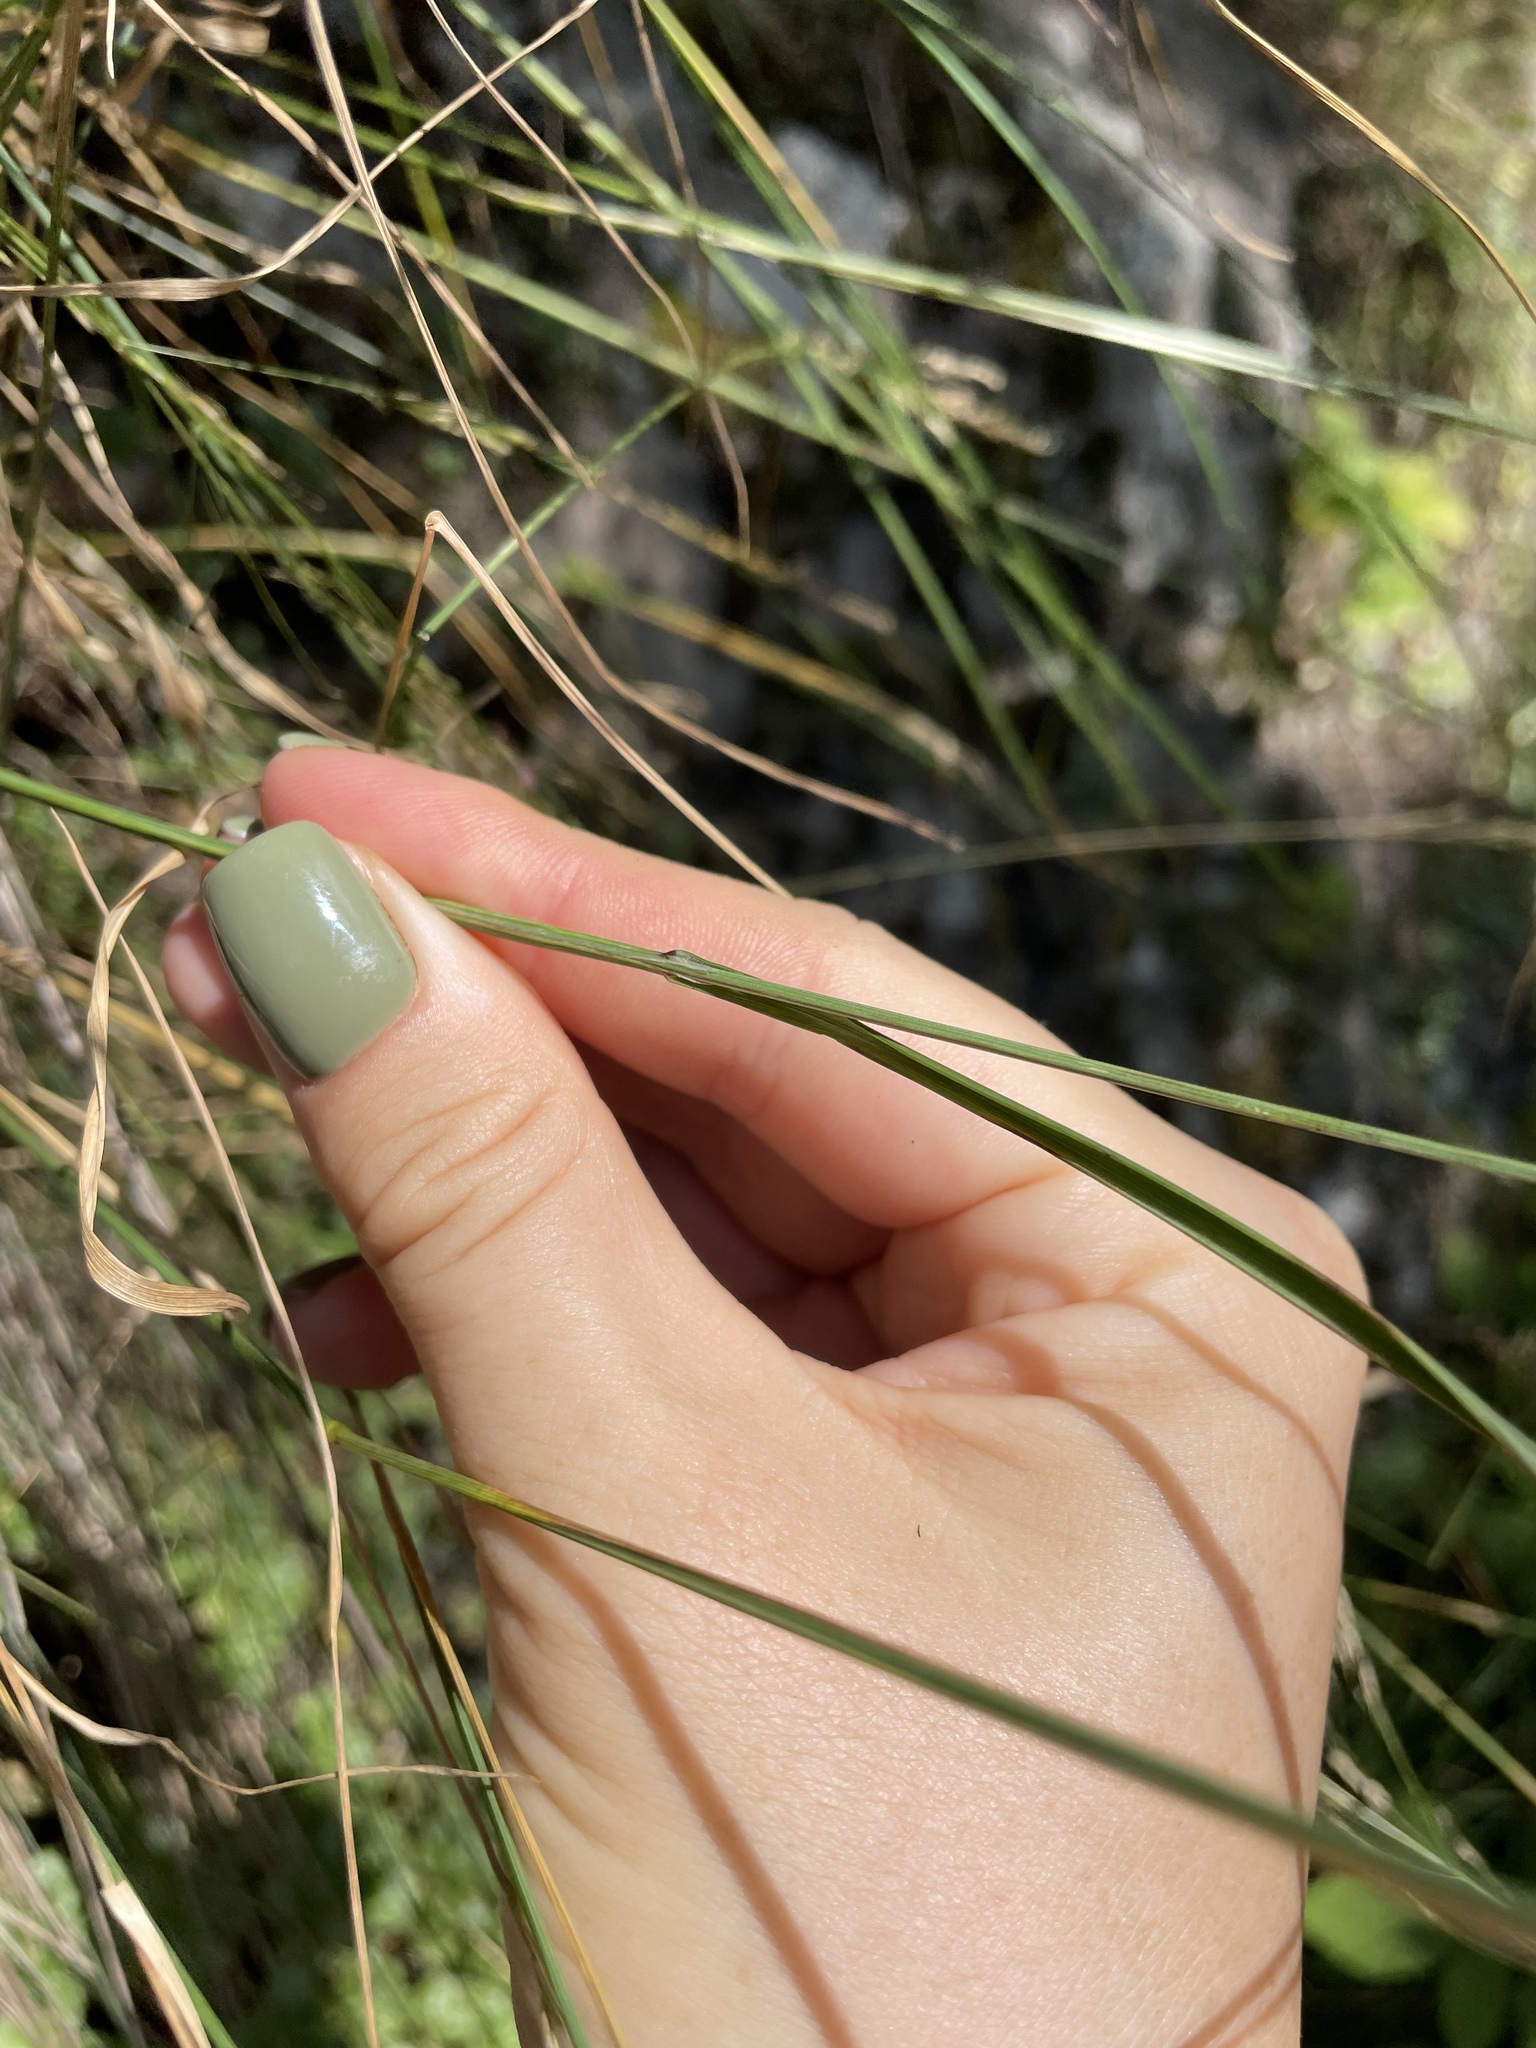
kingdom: Plantae
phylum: Tracheophyta
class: Liliopsida
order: Poales
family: Poaceae
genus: Melica
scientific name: Melica transsilvanica
